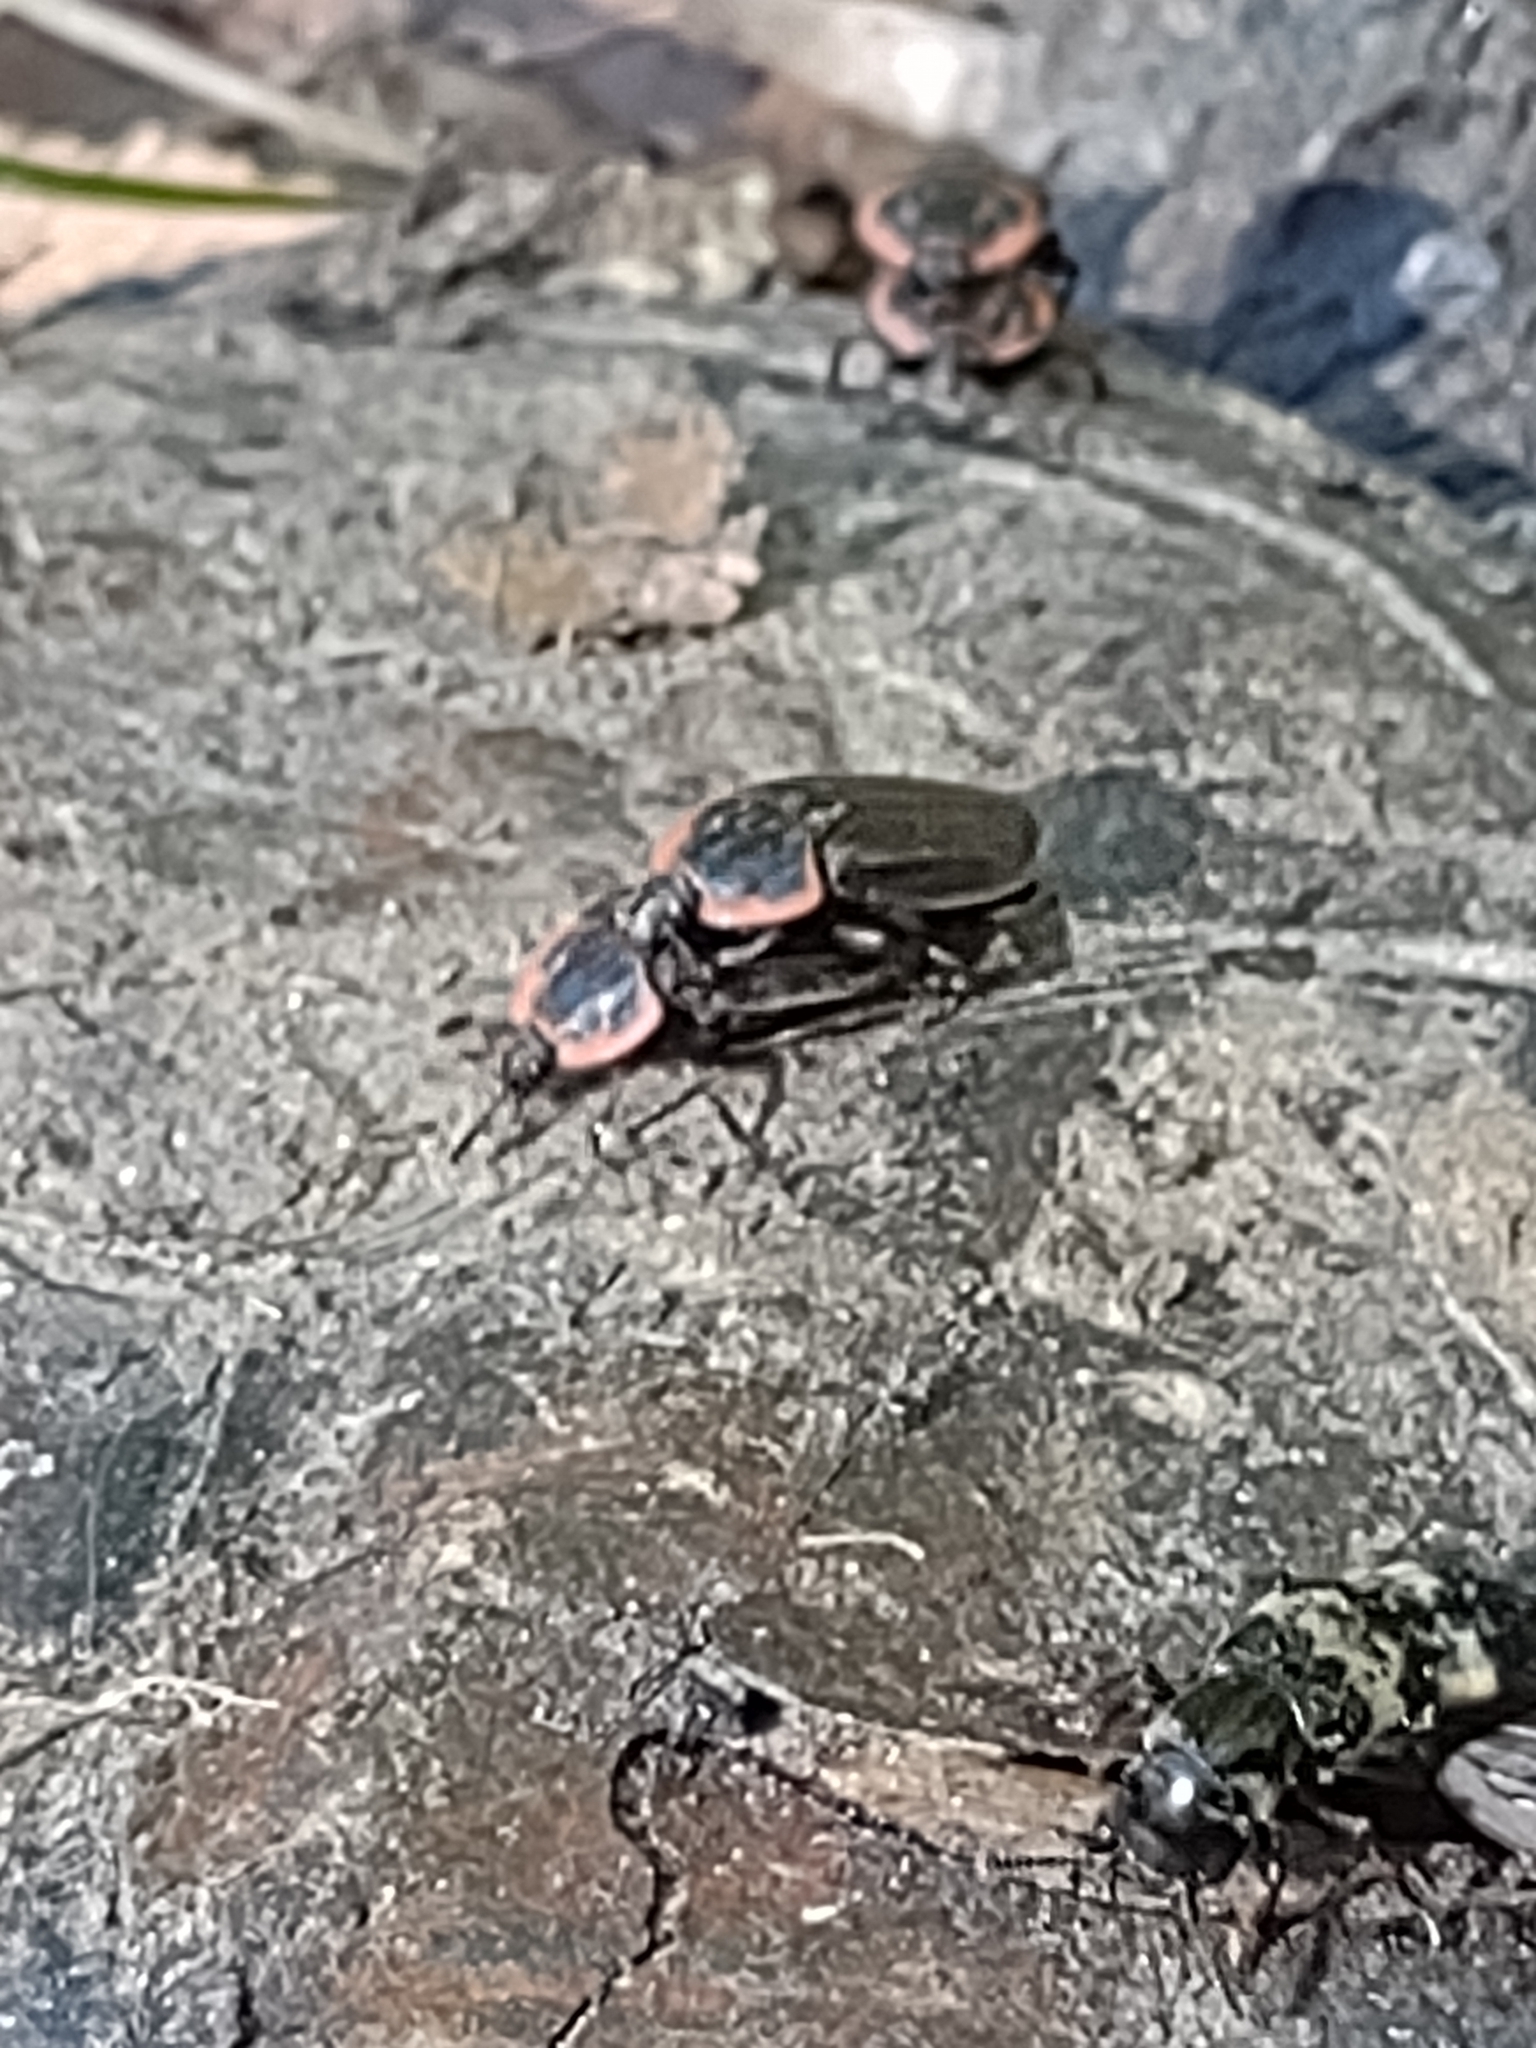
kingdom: Animalia
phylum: Arthropoda
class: Insecta
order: Coleoptera
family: Staphylinidae
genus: Oiceoptoma
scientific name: Oiceoptoma noveboracense
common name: Margined carrion beetle
